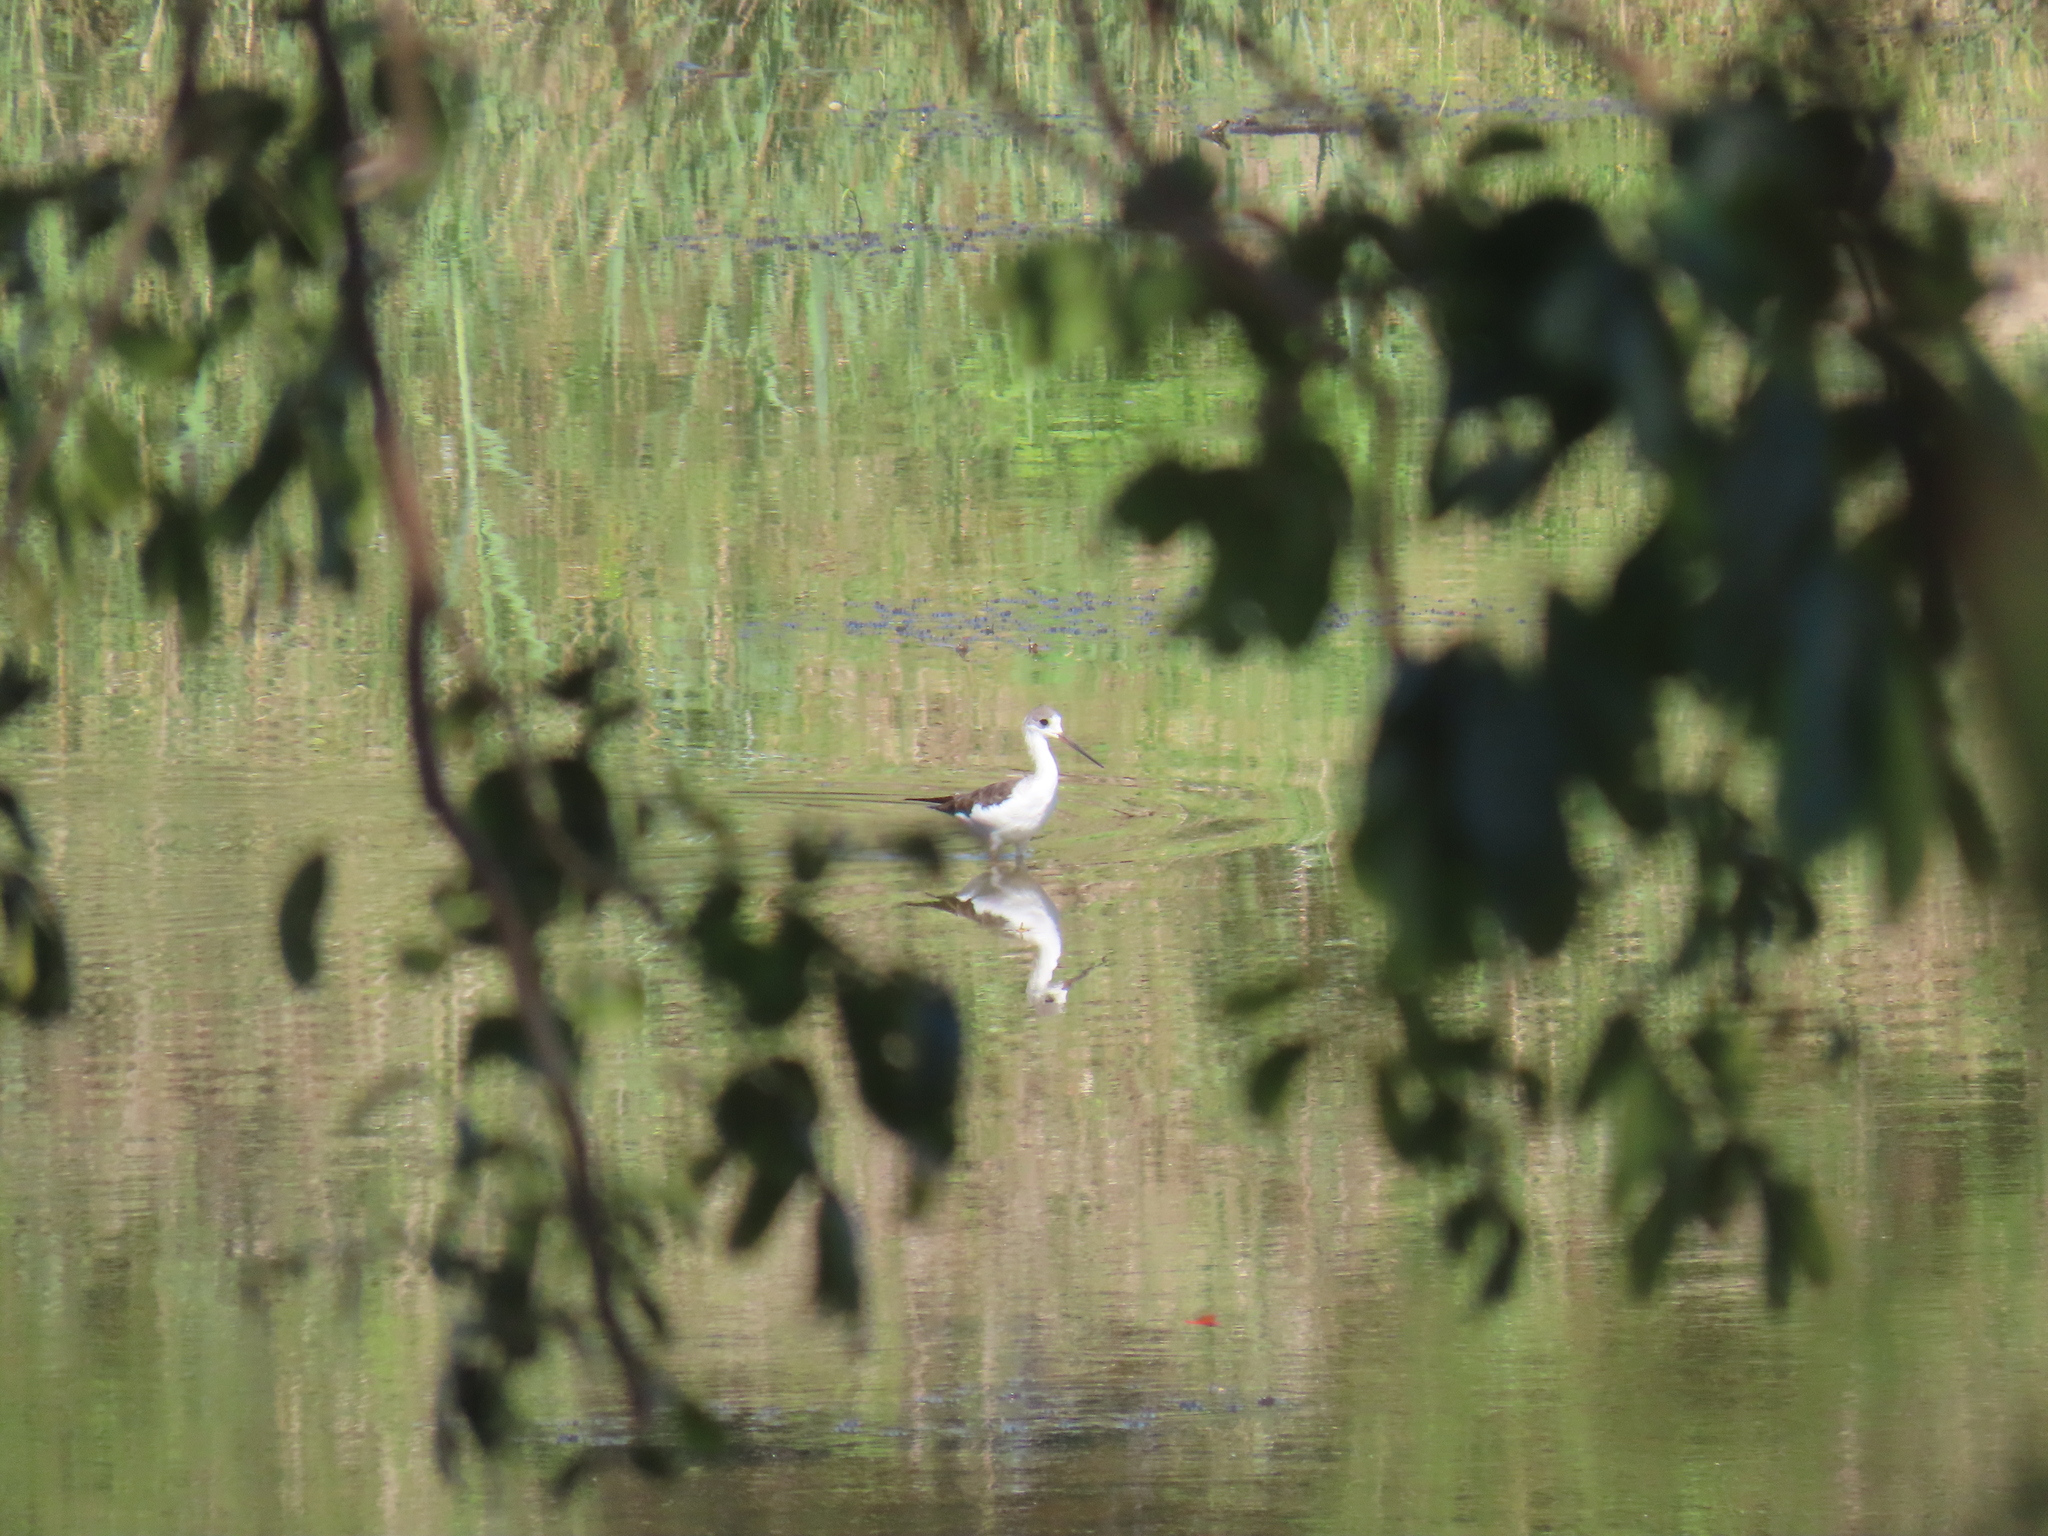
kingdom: Animalia
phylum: Chordata
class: Aves
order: Charadriiformes
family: Recurvirostridae
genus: Himantopus
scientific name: Himantopus himantopus
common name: Black-winged stilt
